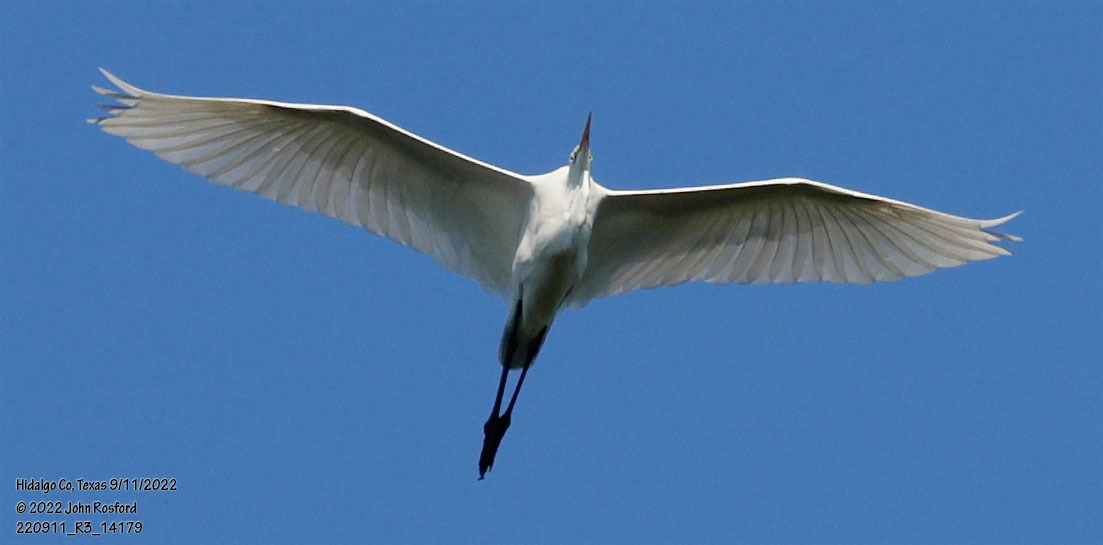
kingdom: Animalia
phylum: Chordata
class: Aves
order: Pelecaniformes
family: Ardeidae
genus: Ardea
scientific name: Ardea alba
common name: Great egret
